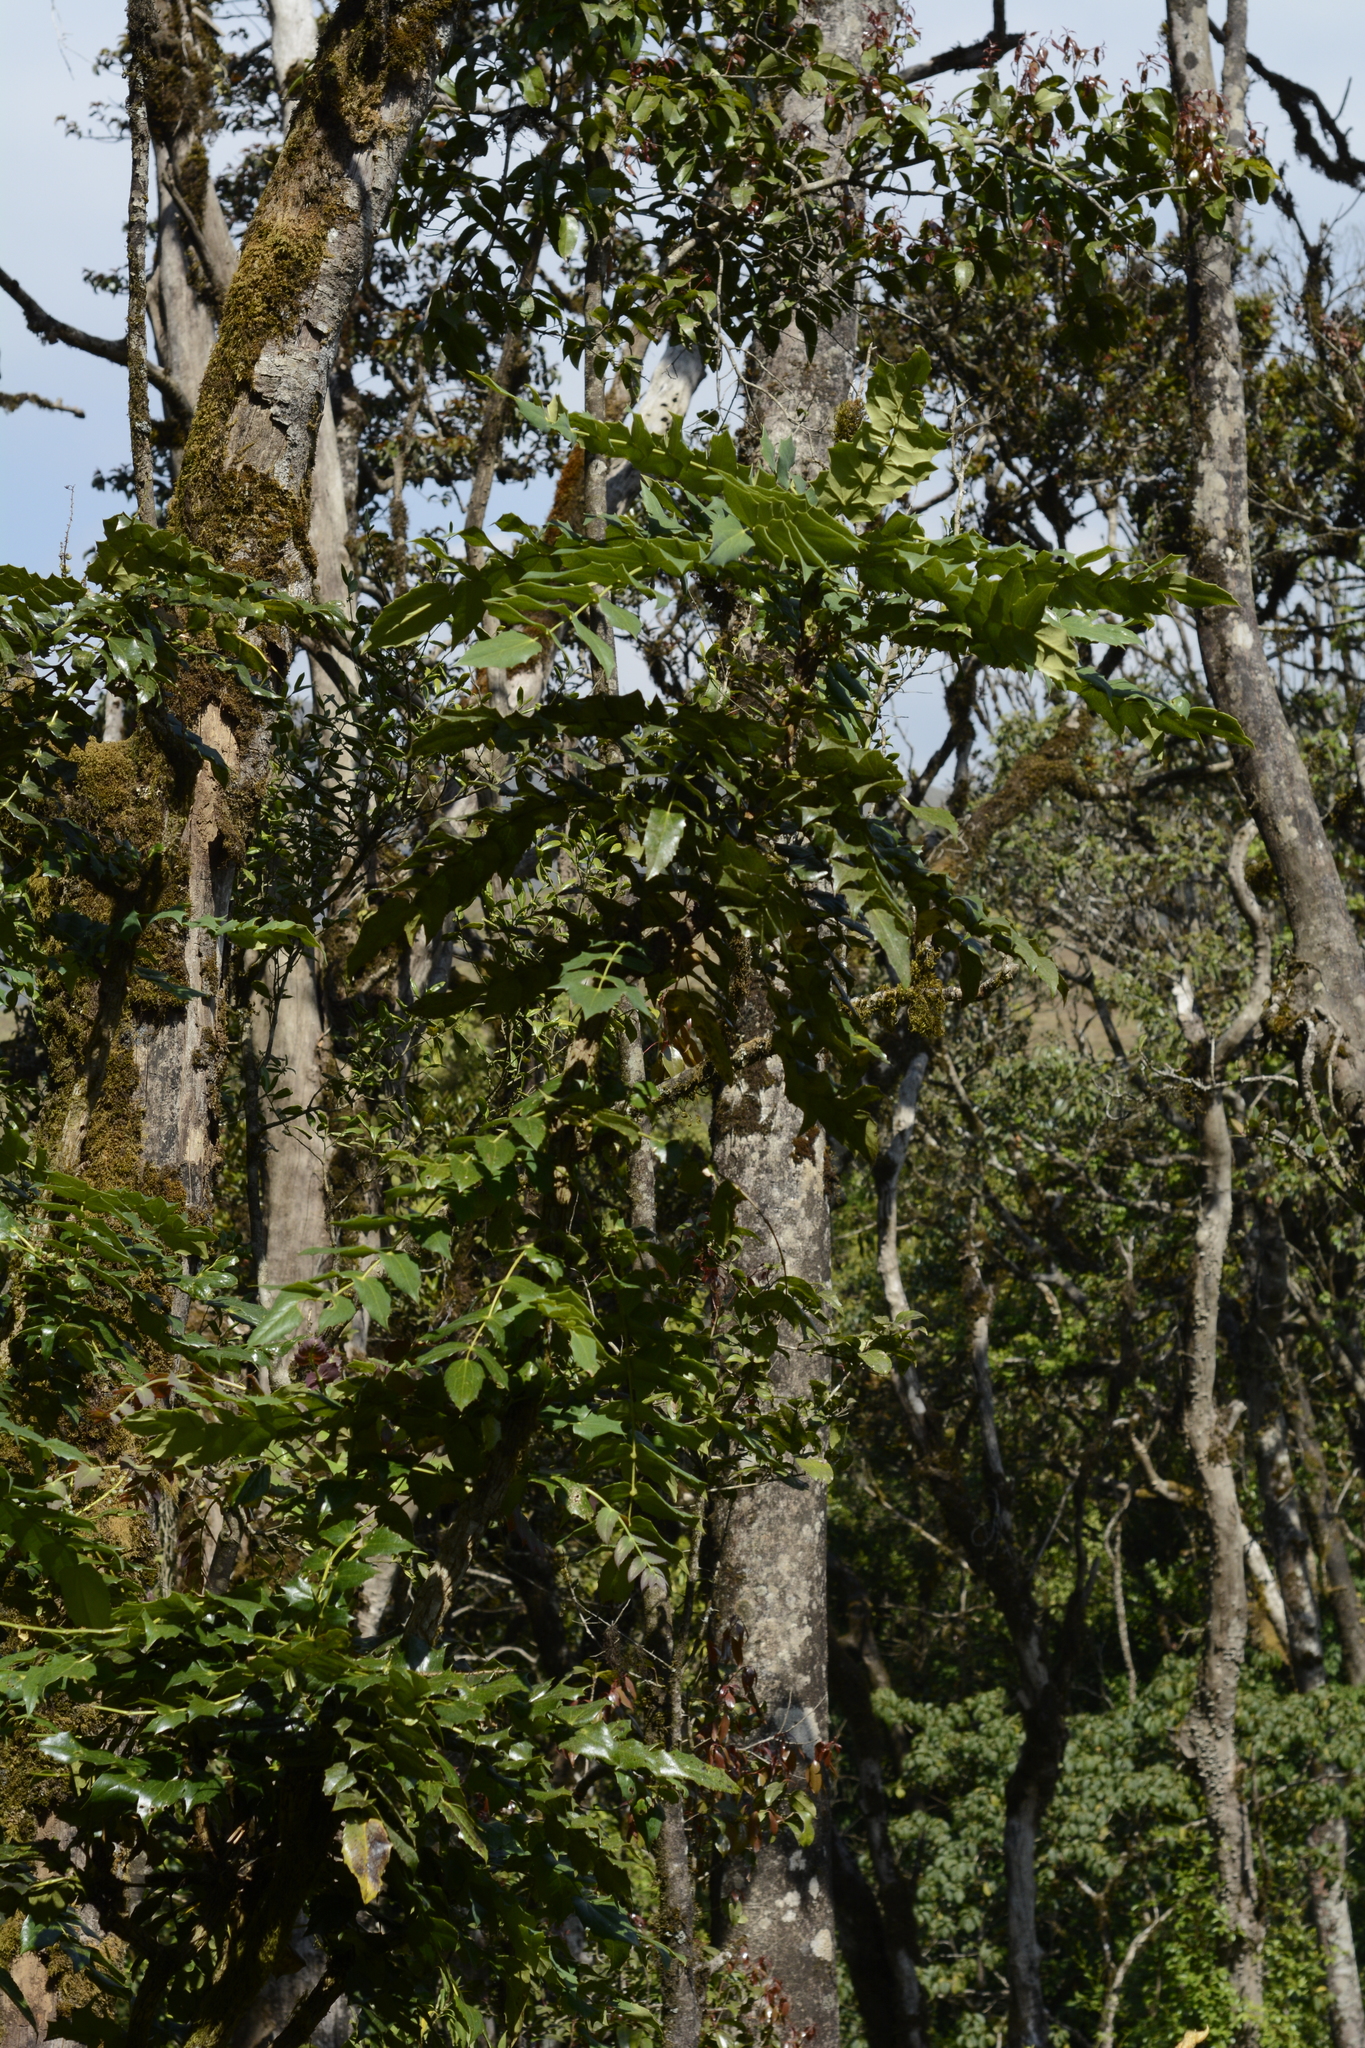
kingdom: Plantae
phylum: Tracheophyta
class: Magnoliopsida
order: Ranunculales
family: Berberidaceae
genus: Mahonia
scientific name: Mahonia napaulensis
